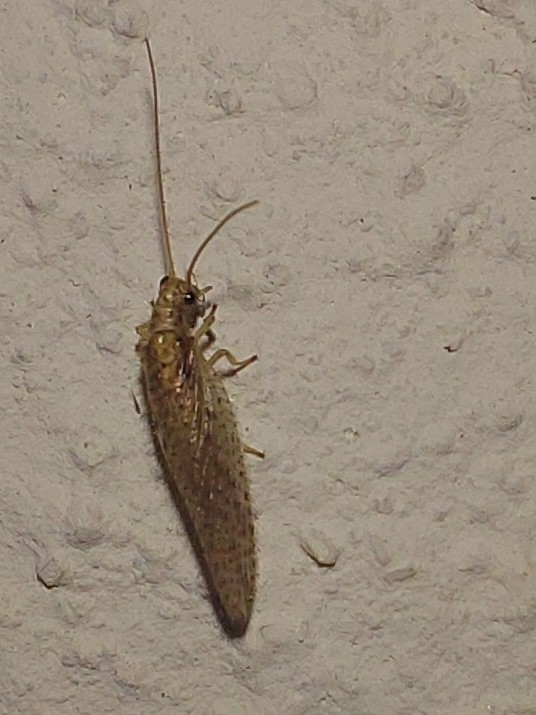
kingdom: Animalia
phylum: Arthropoda
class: Insecta
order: Neuroptera
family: Hemerobiidae
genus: Micromus
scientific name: Micromus oblongus
